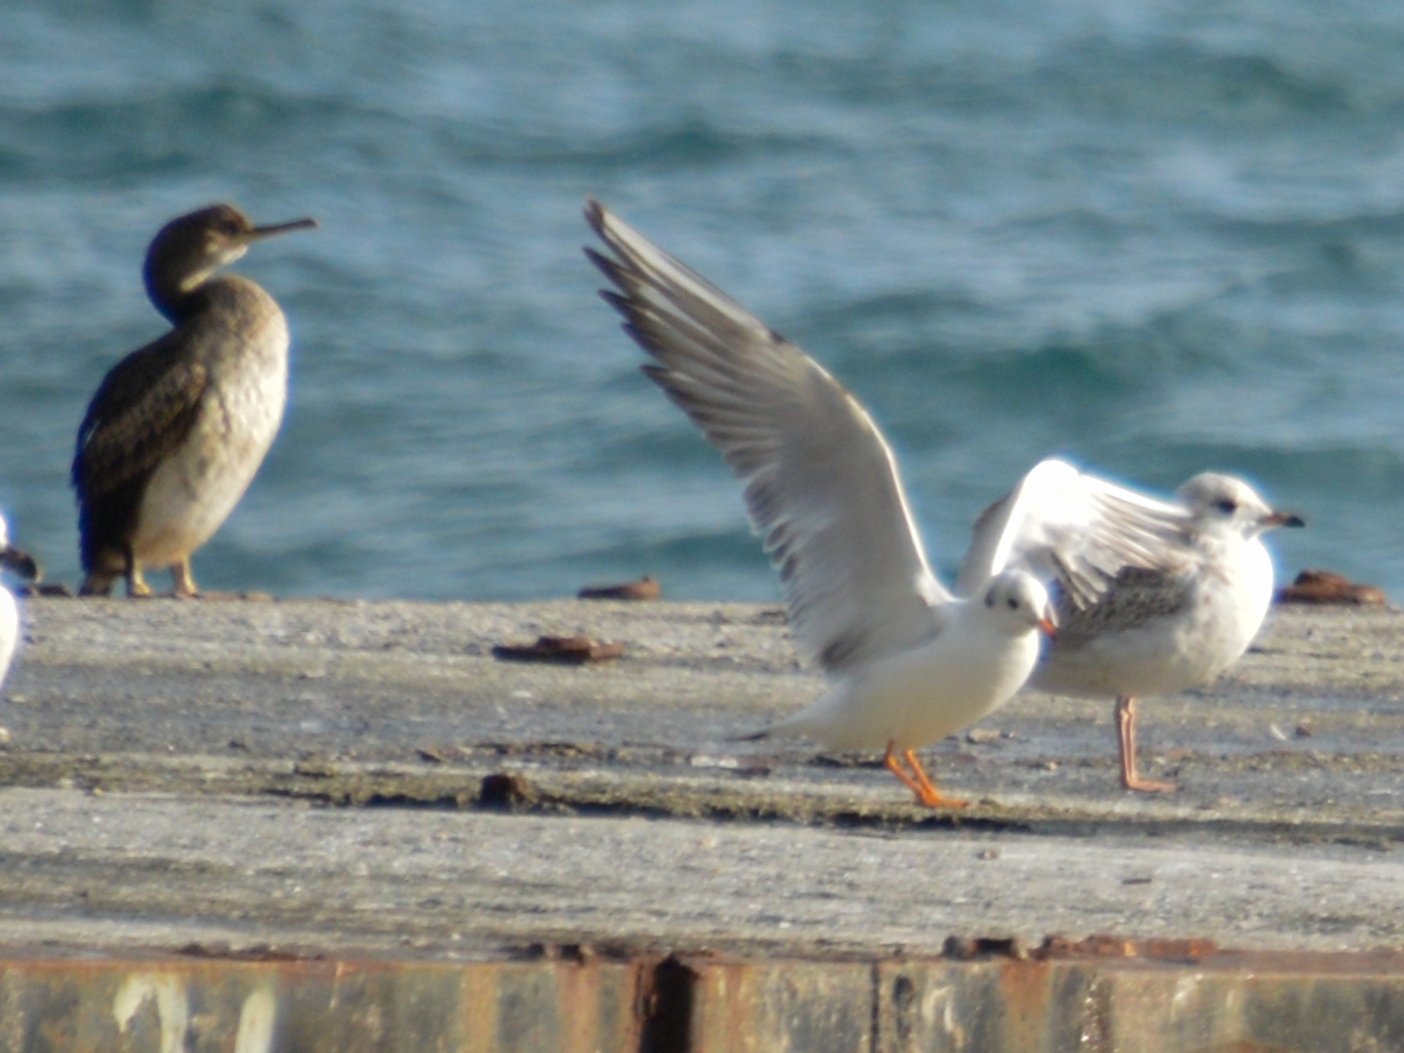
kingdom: Animalia
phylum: Chordata
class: Aves
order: Suliformes
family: Phalacrocoracidae
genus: Phalacrocorax
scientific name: Phalacrocorax aristotelis
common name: European shag
